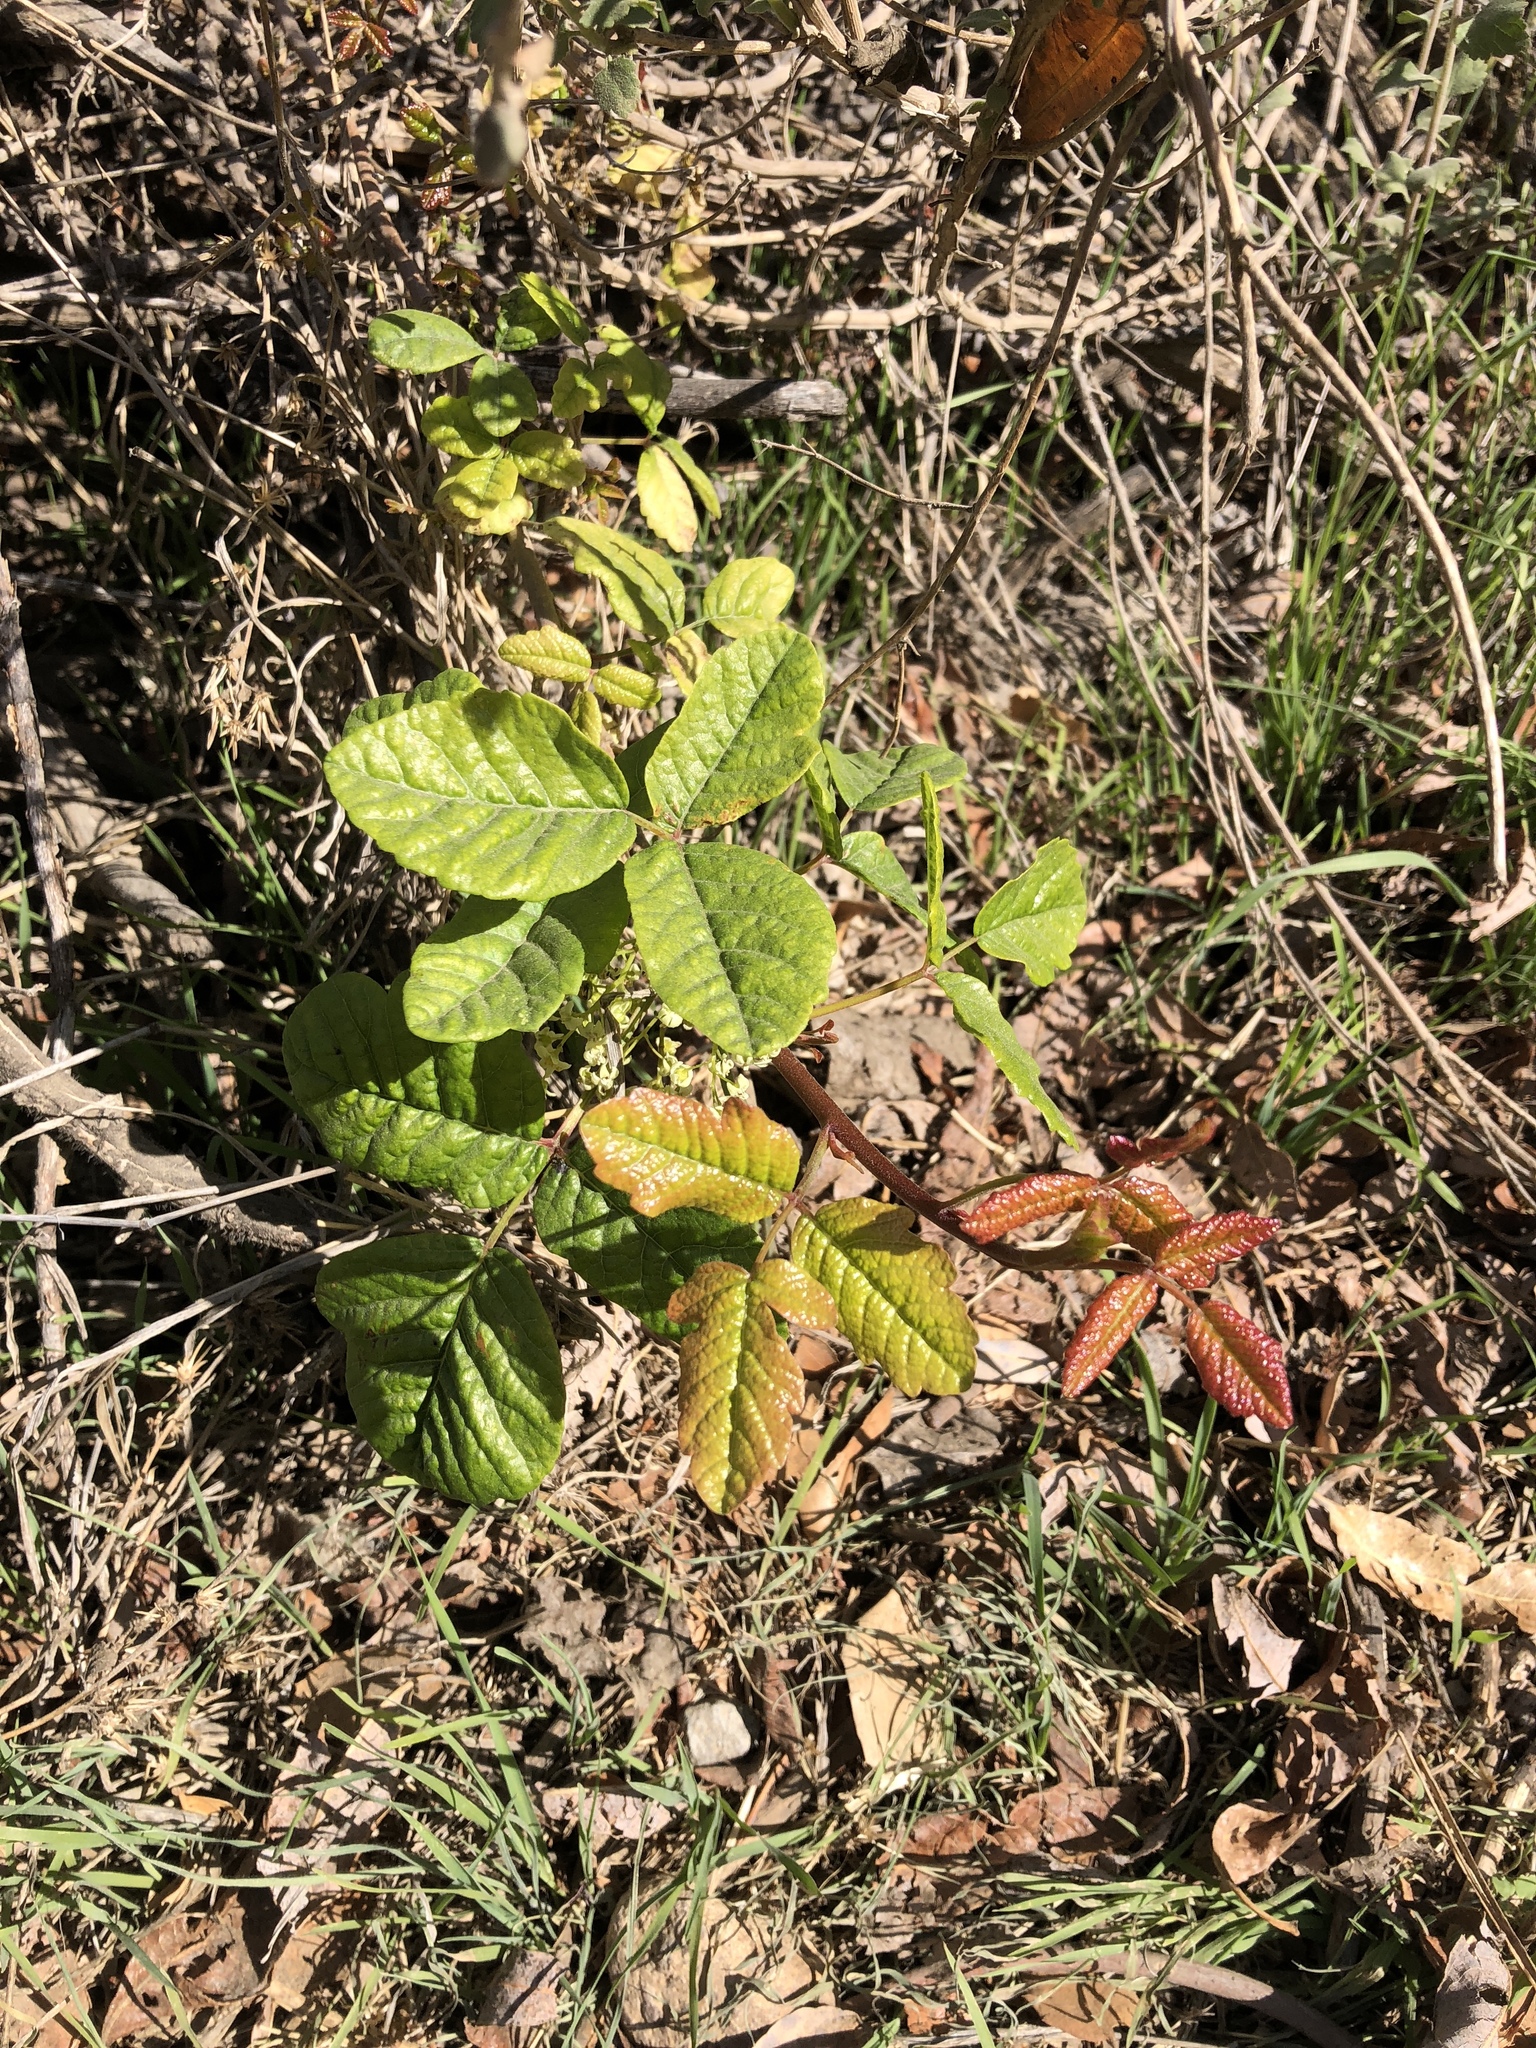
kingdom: Plantae
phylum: Tracheophyta
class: Magnoliopsida
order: Sapindales
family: Anacardiaceae
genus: Toxicodendron
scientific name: Toxicodendron diversilobum
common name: Pacific poison-oak
